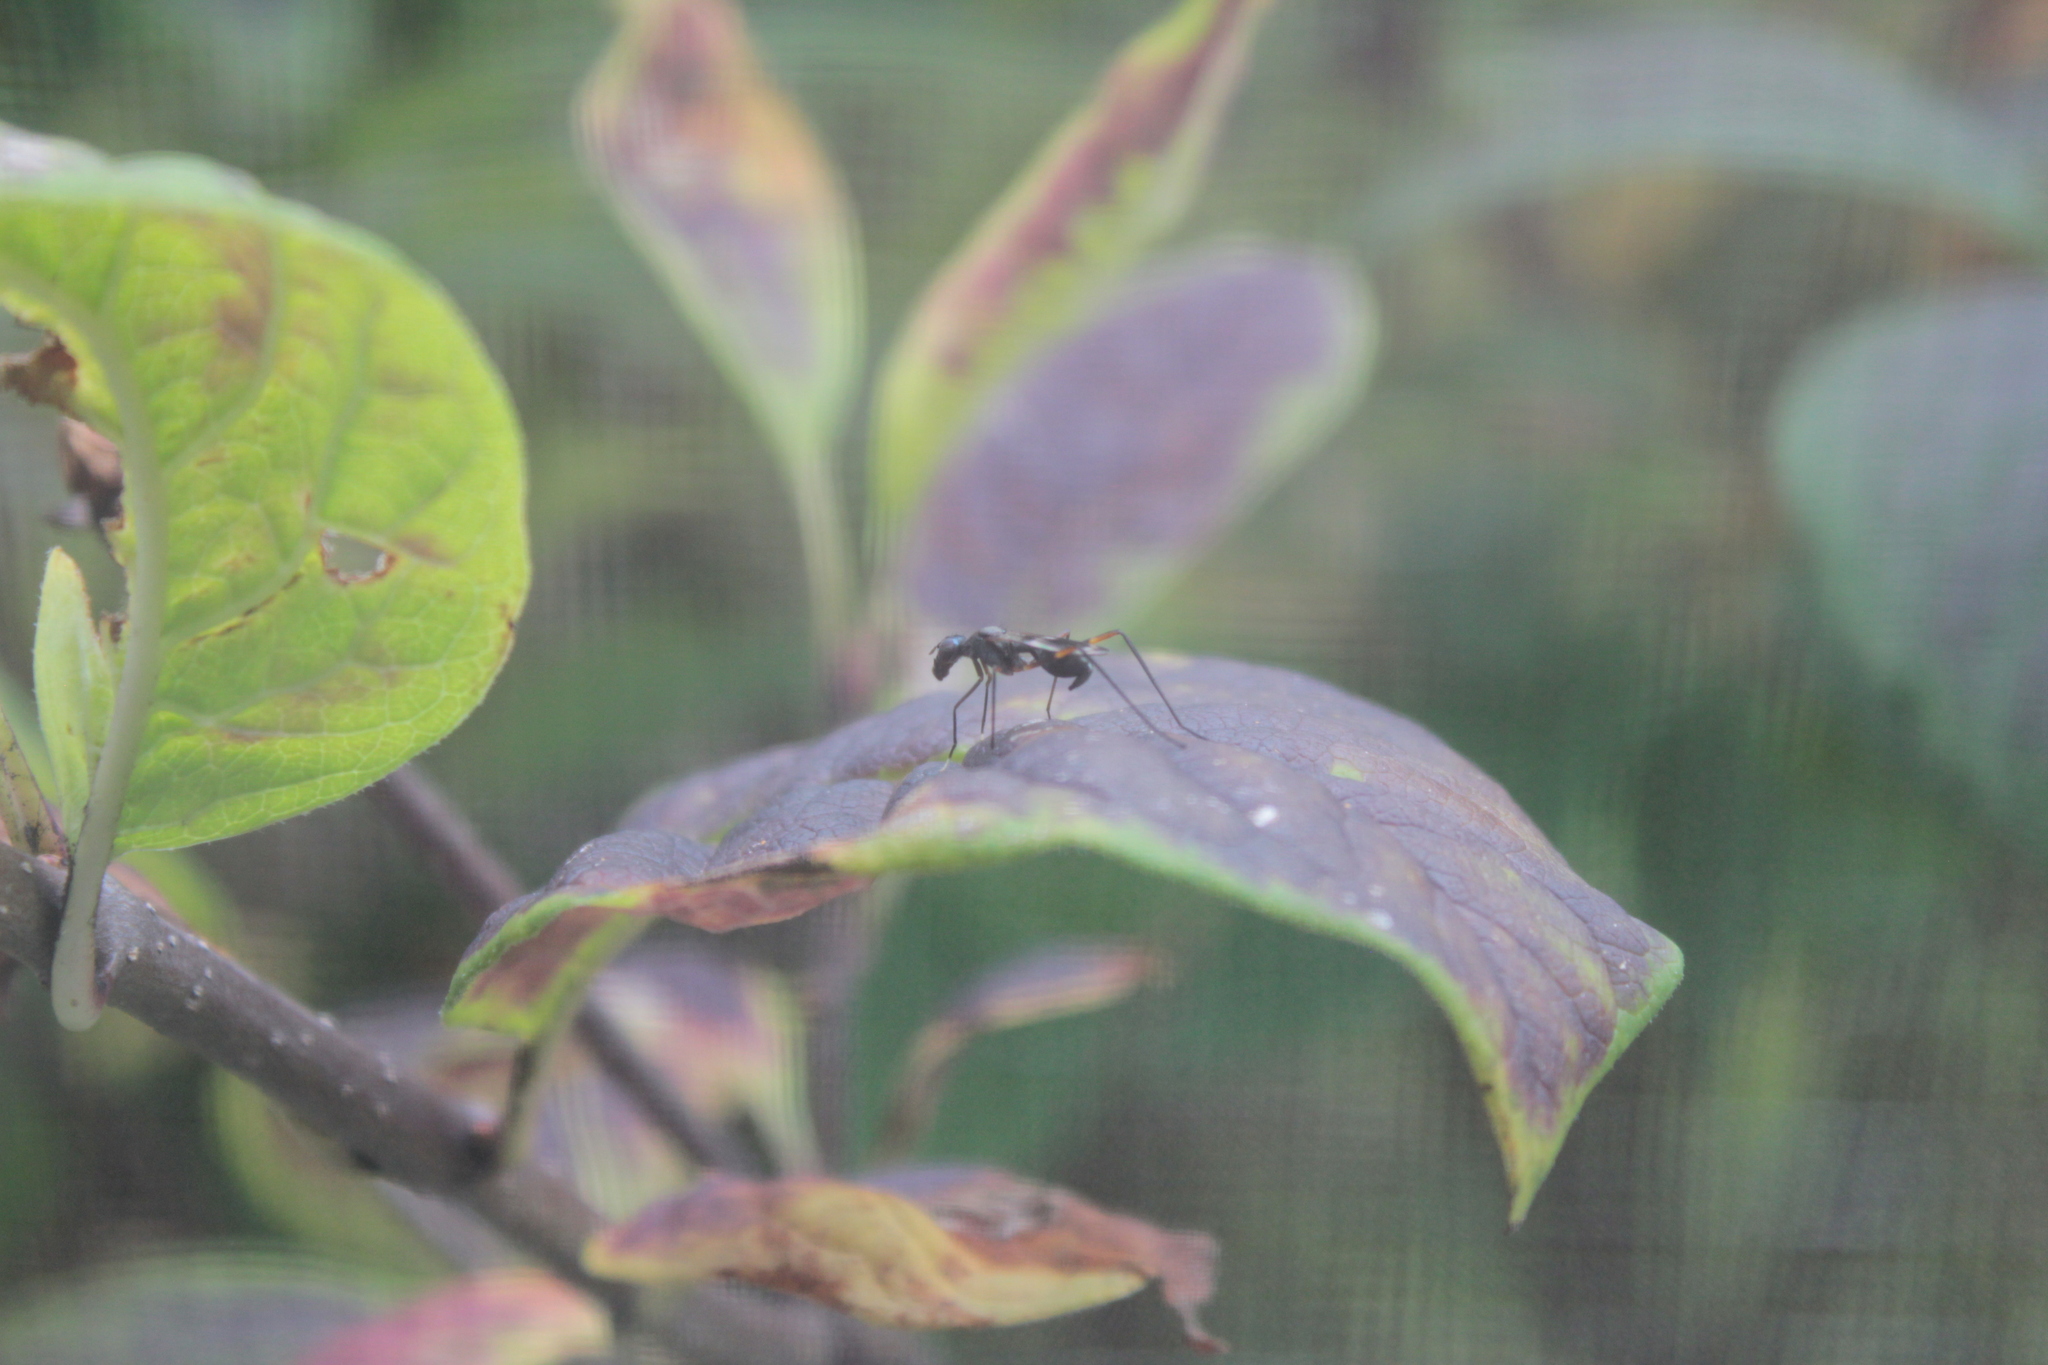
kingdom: Animalia
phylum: Arthropoda
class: Insecta
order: Diptera
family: Micropezidae
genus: Taeniaptera
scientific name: Taeniaptera trivittata
